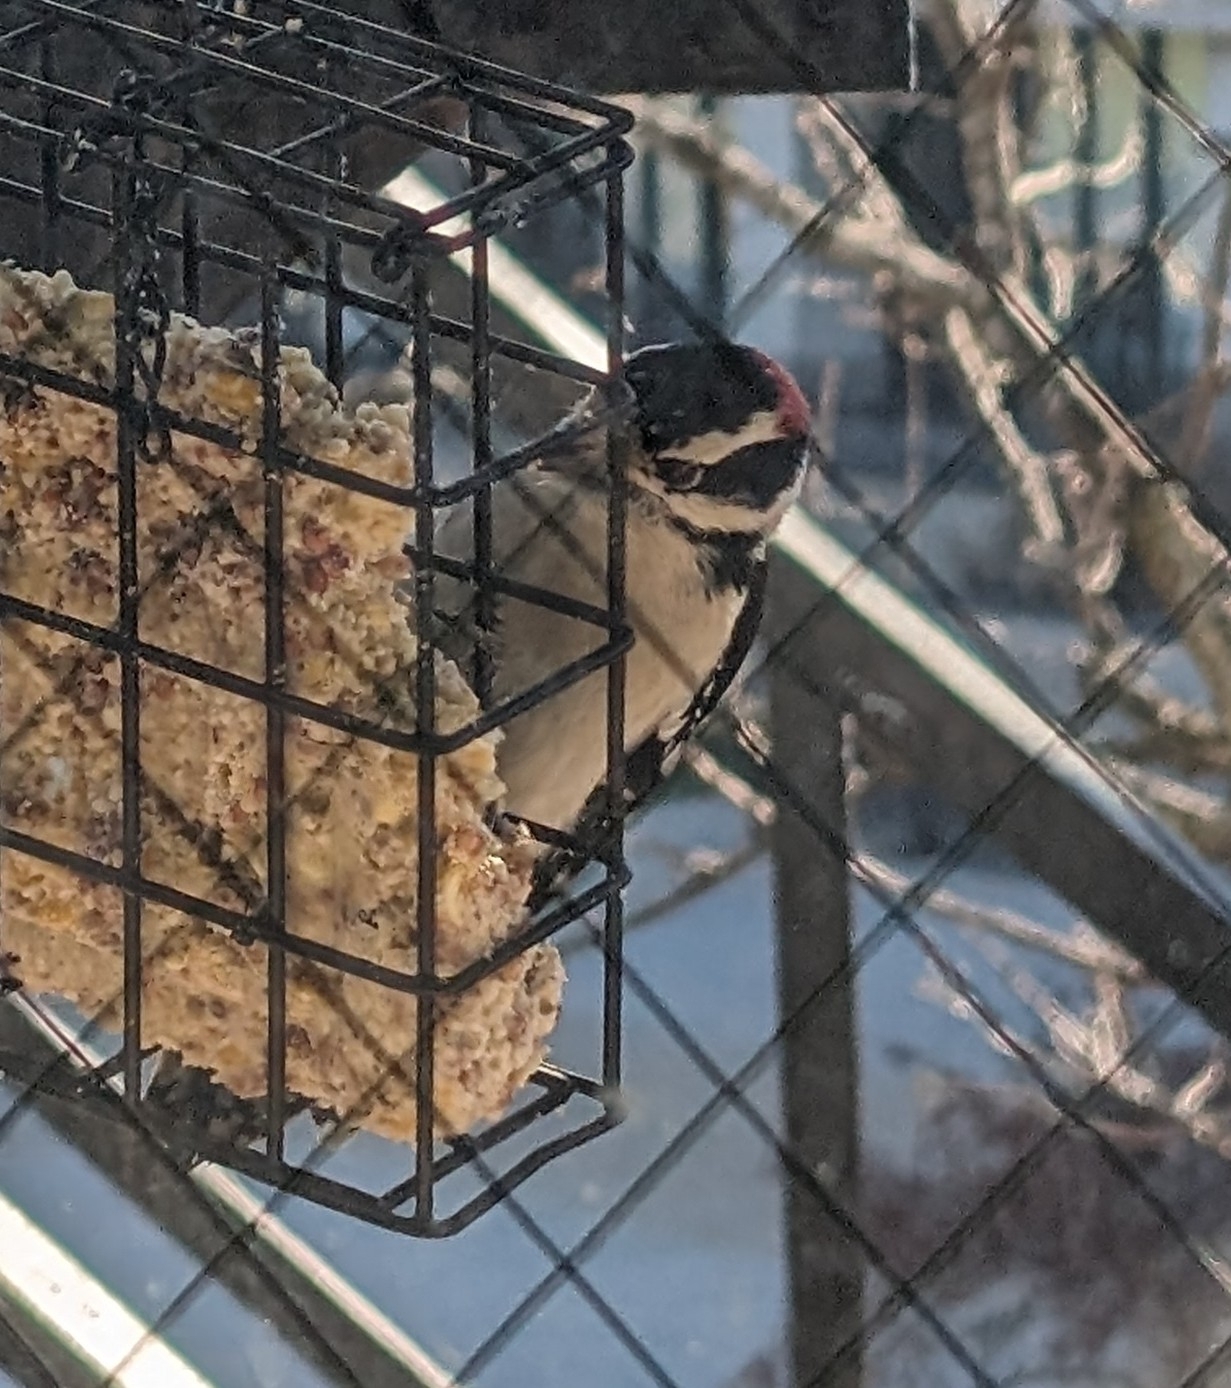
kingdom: Animalia
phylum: Chordata
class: Aves
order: Piciformes
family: Picidae
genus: Dryobates
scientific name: Dryobates pubescens
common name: Downy woodpecker
